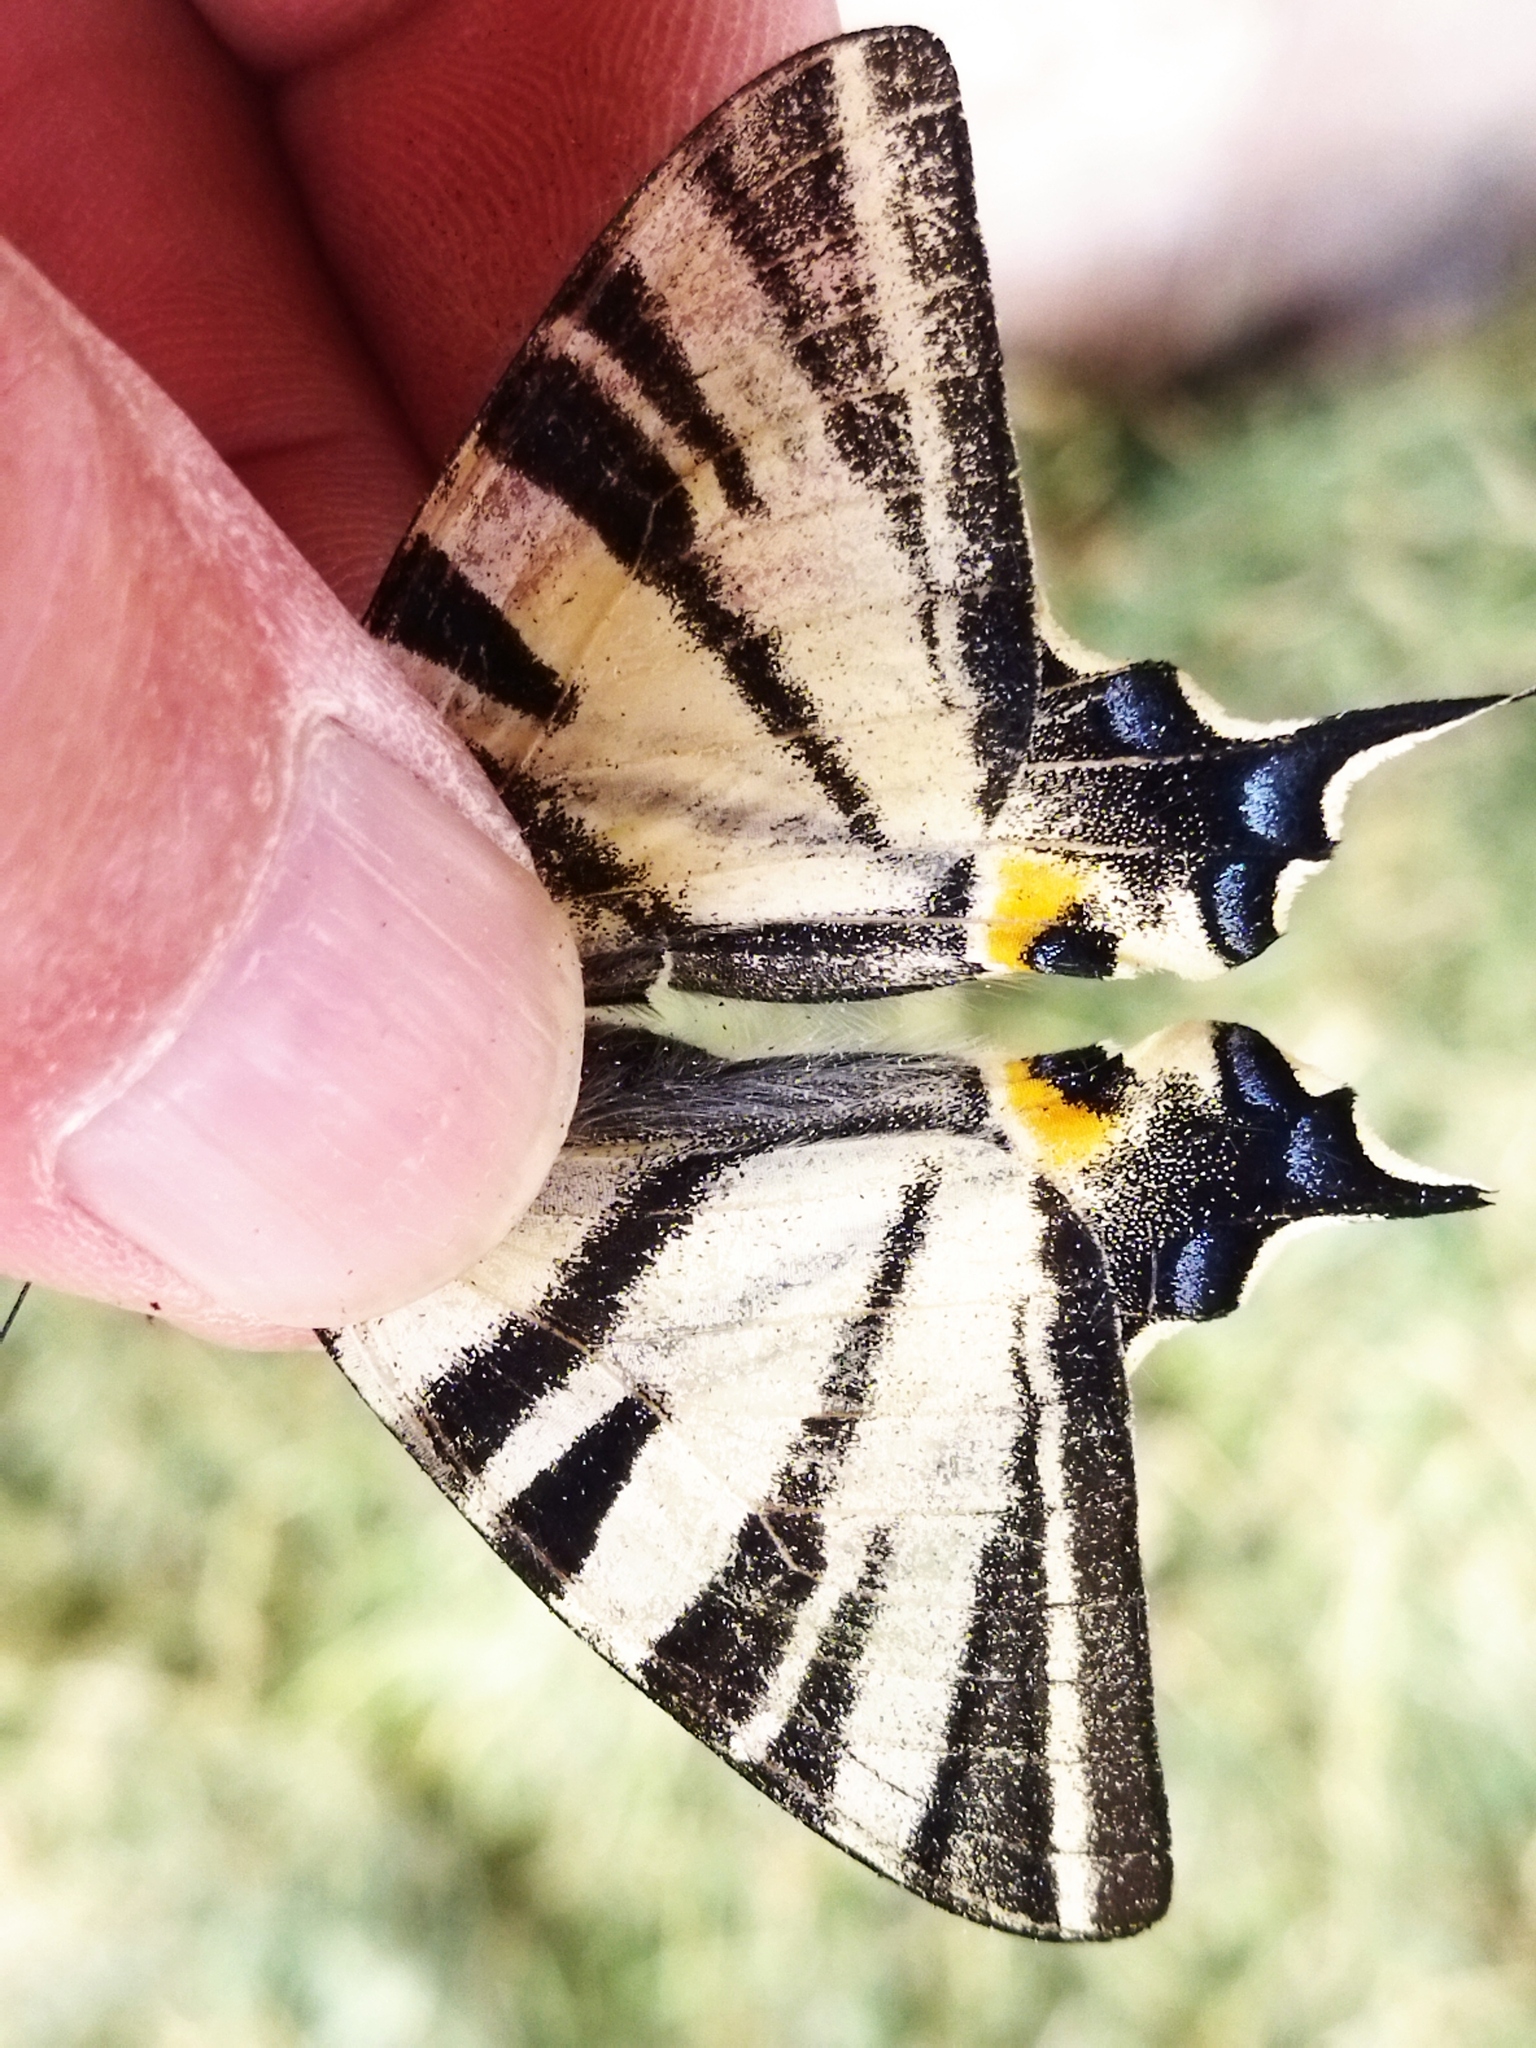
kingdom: Animalia
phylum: Arthropoda
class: Insecta
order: Lepidoptera
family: Papilionidae
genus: Iphiclides
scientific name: Iphiclides podalirius
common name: Scarce swallowtail
